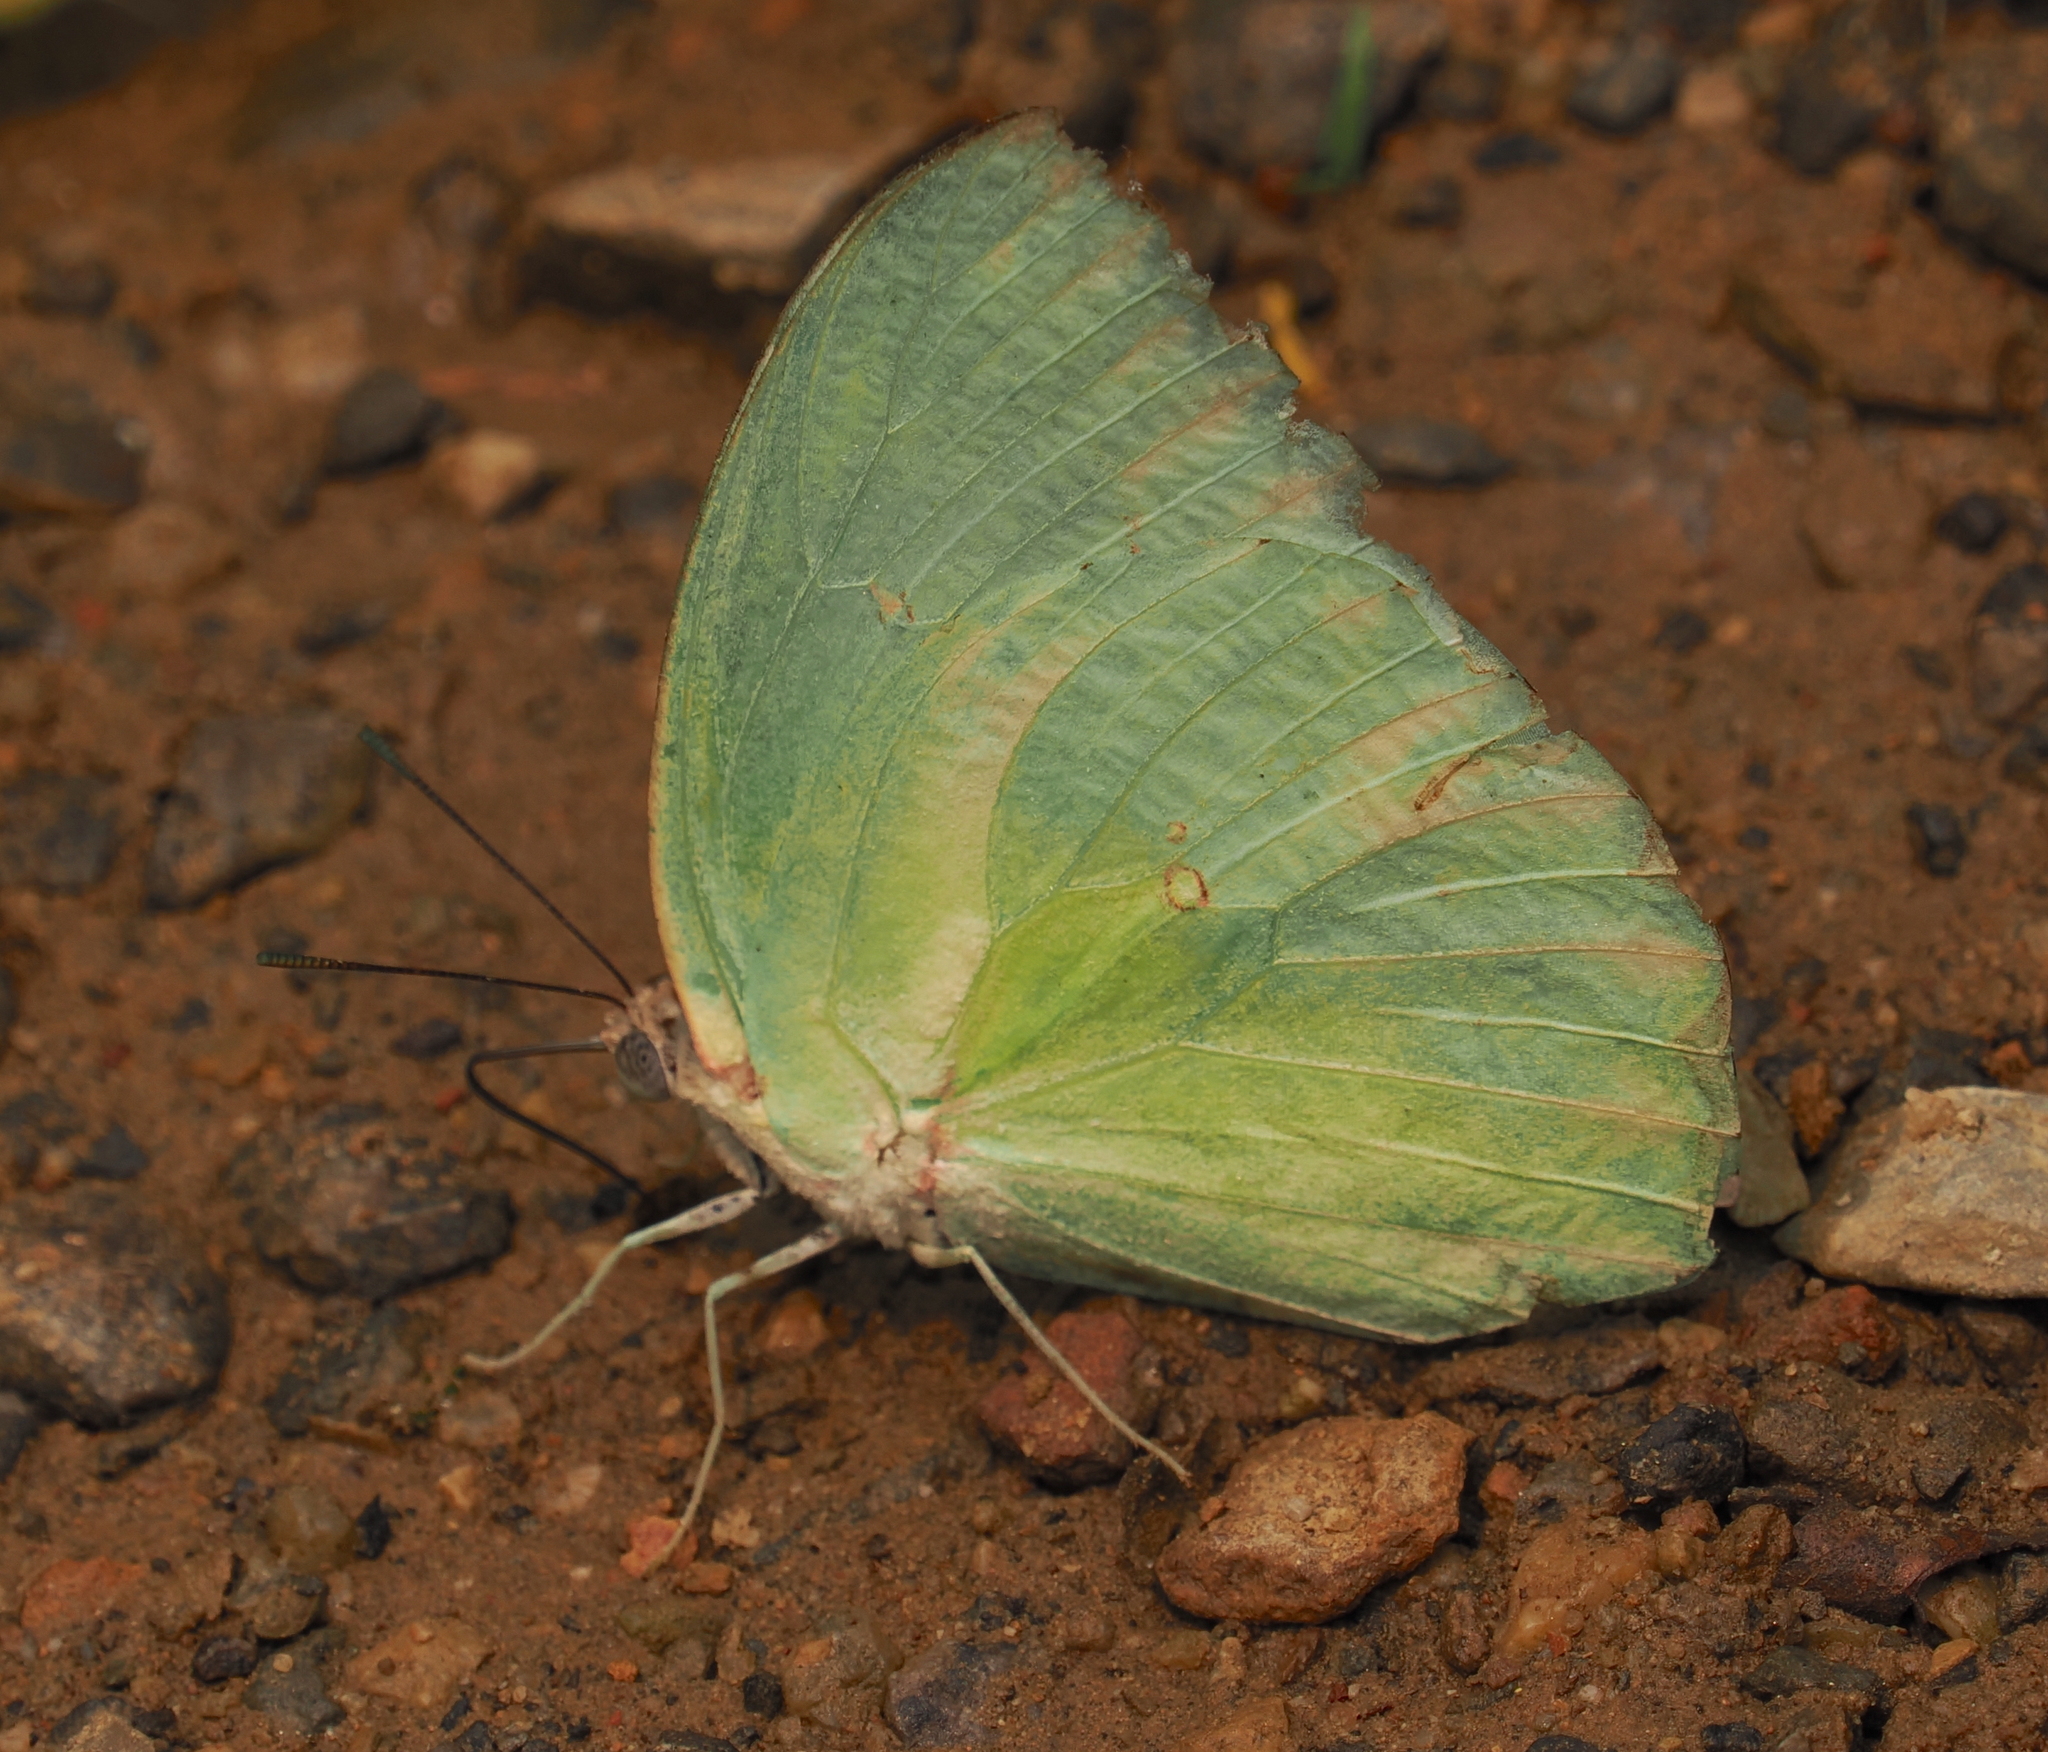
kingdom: Animalia
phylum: Arthropoda
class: Insecta
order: Lepidoptera
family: Pieridae
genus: Catopsilia
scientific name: Catopsilia pomona
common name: Common emigrant
